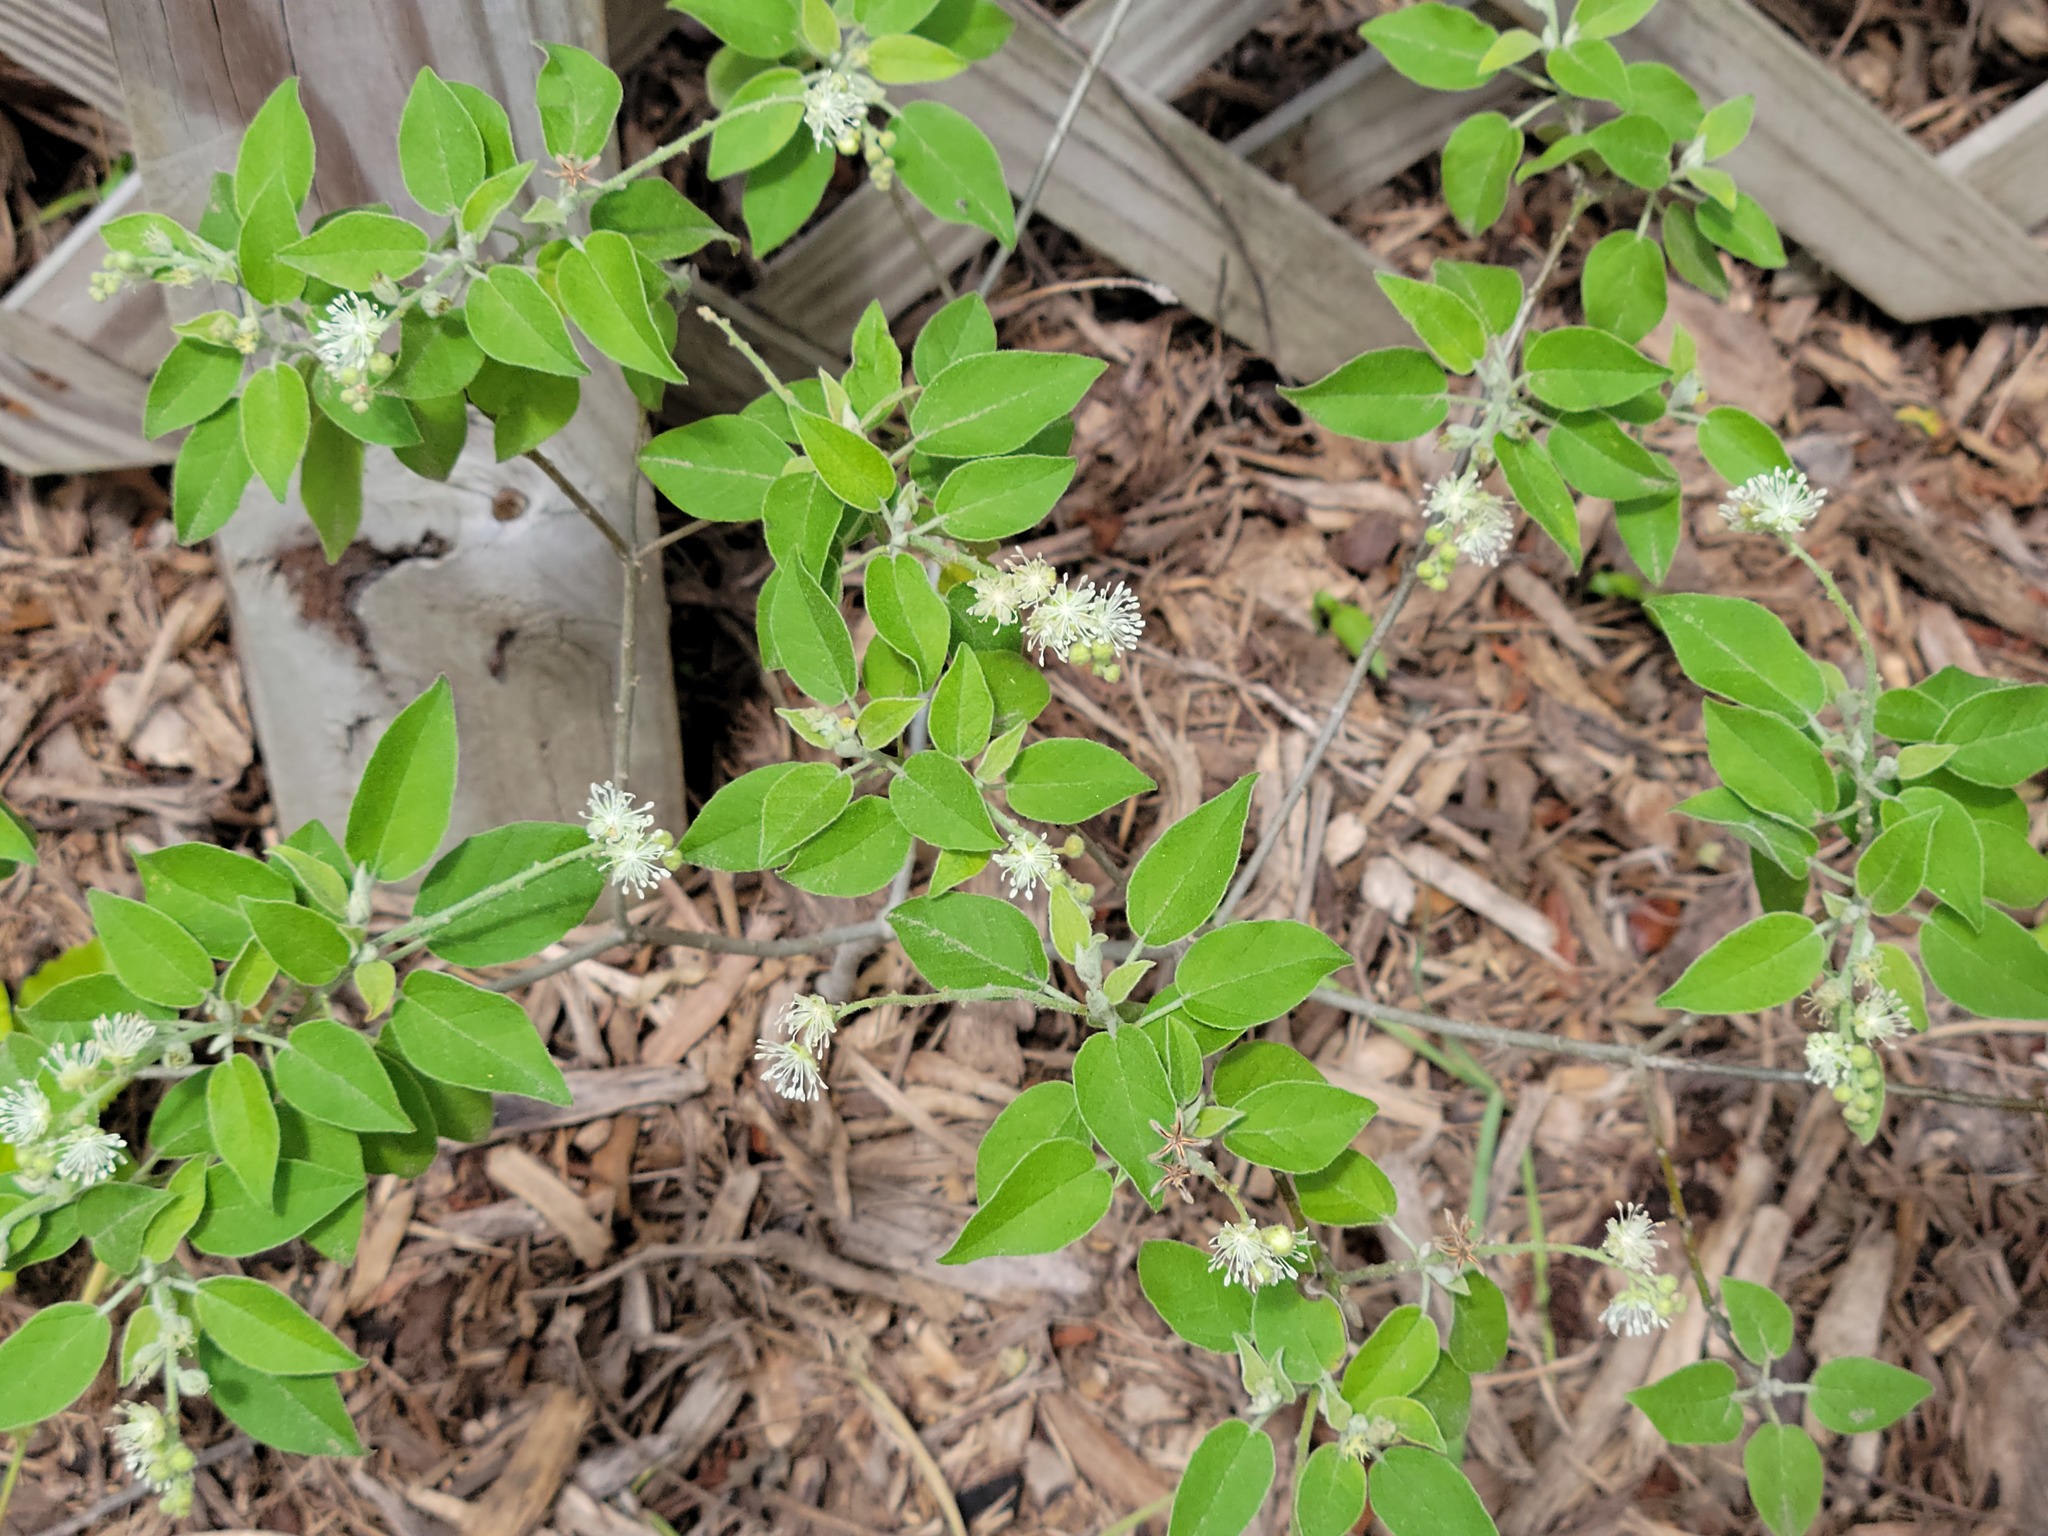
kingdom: Plantae
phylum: Tracheophyta
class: Magnoliopsida
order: Malpighiales
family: Euphorbiaceae
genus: Croton
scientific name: Croton humilis
